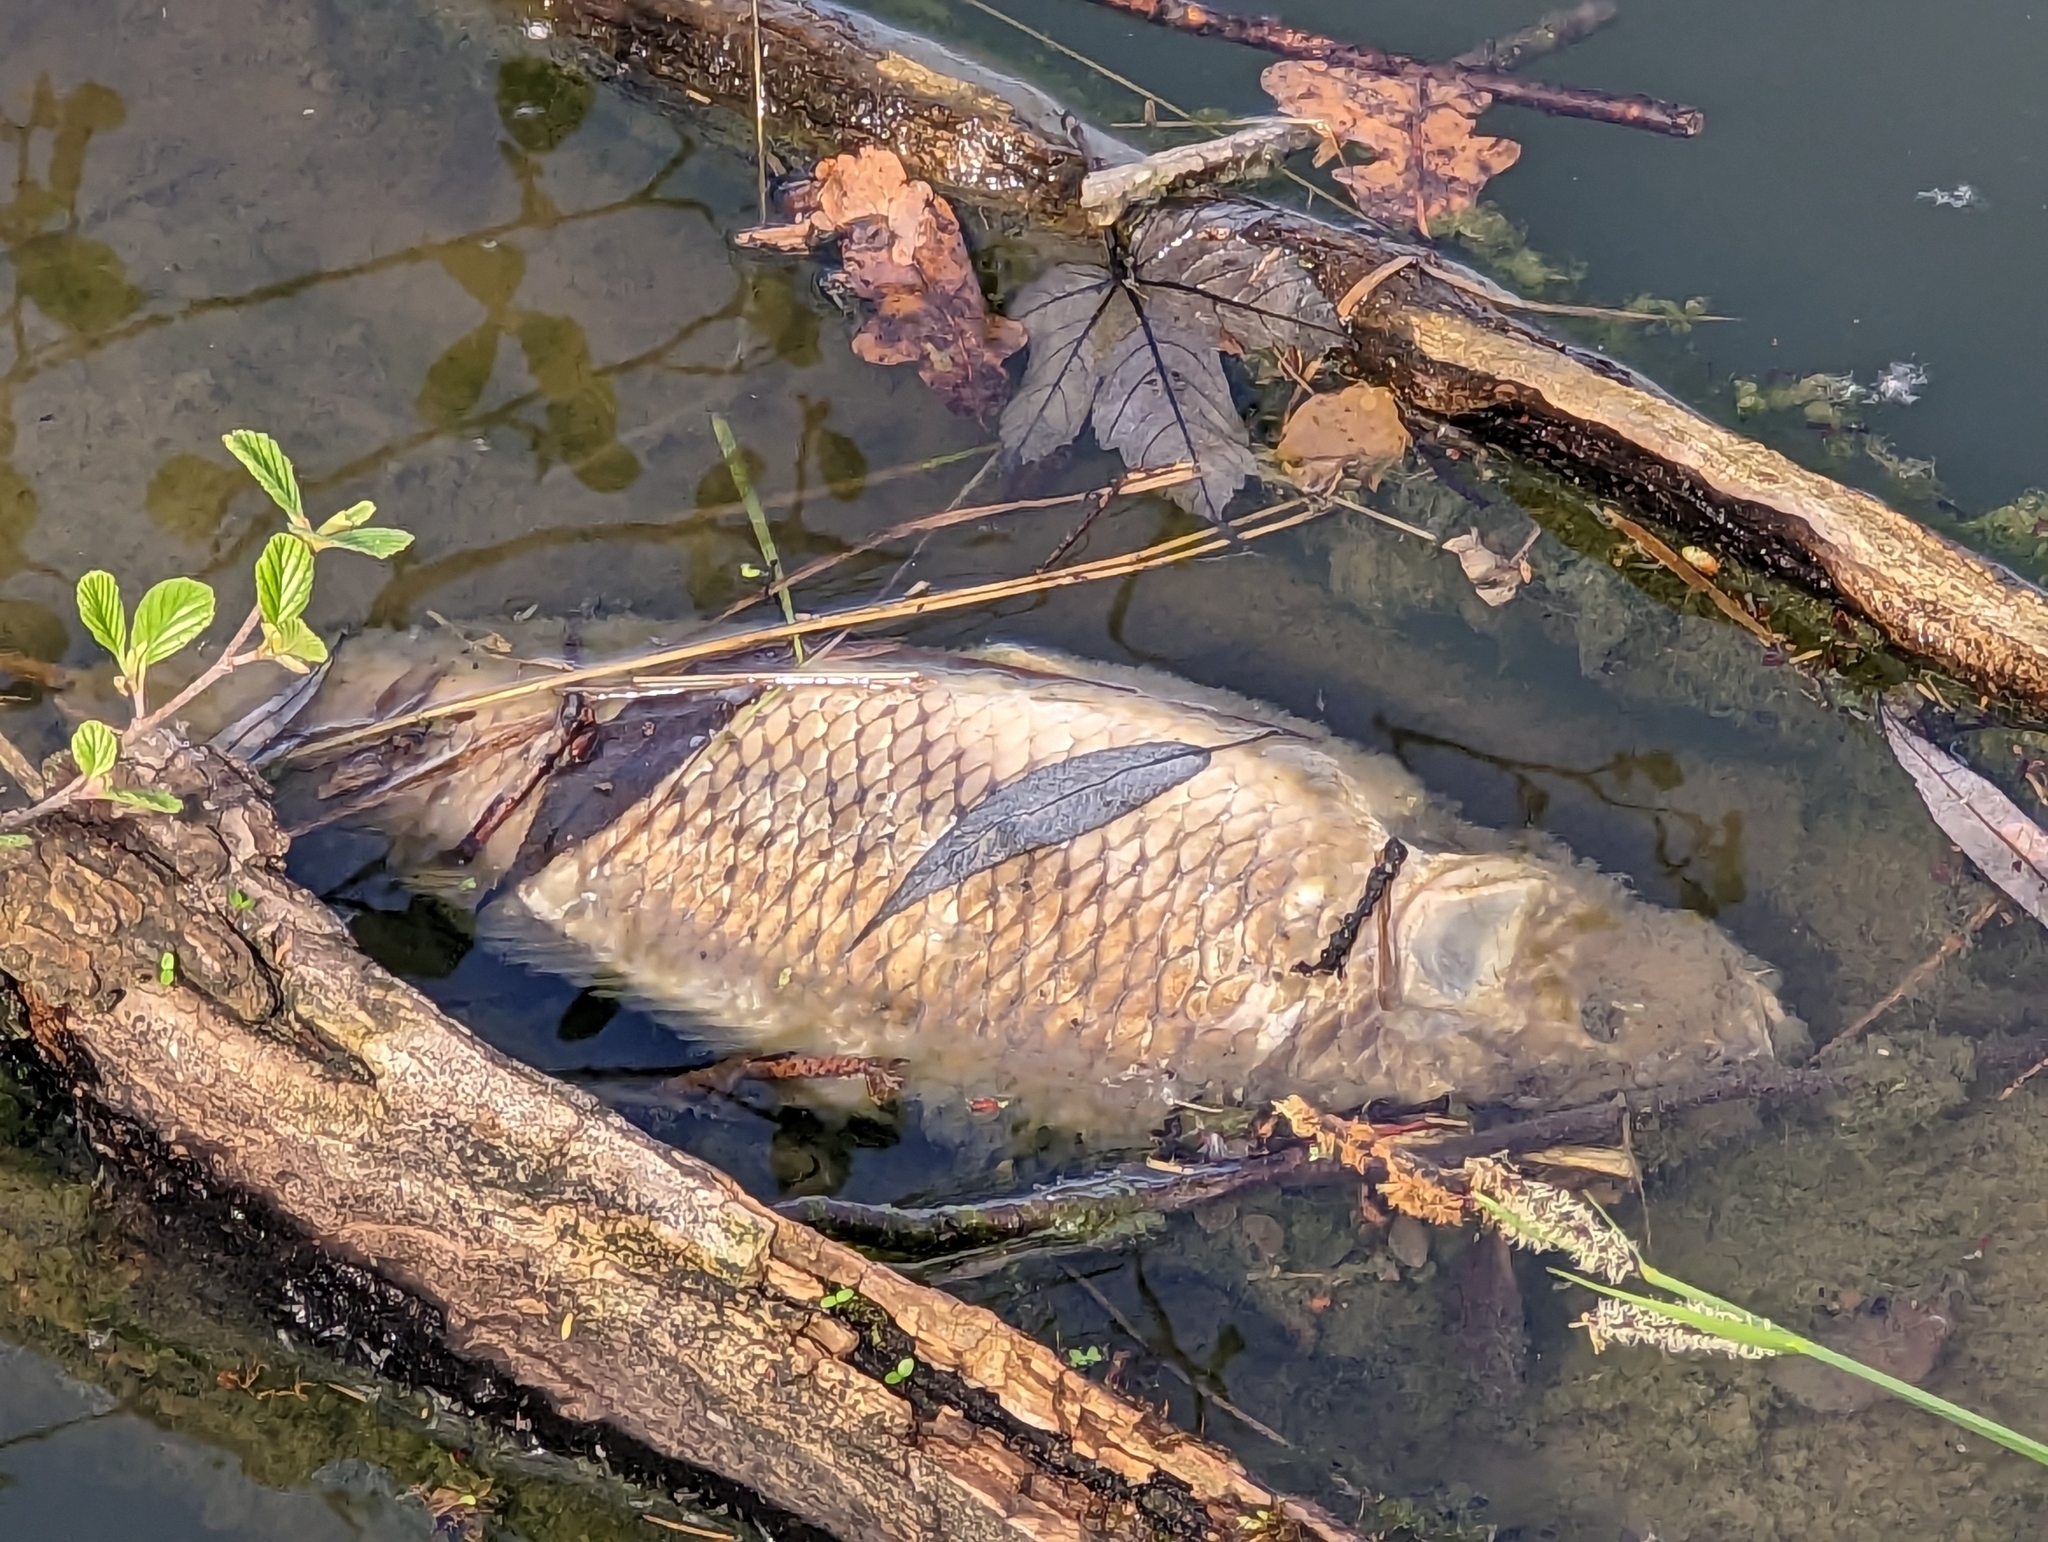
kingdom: Animalia
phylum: Chordata
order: Cypriniformes
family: Cyprinidae
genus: Cyprinus
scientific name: Cyprinus carpio
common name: Common carp
